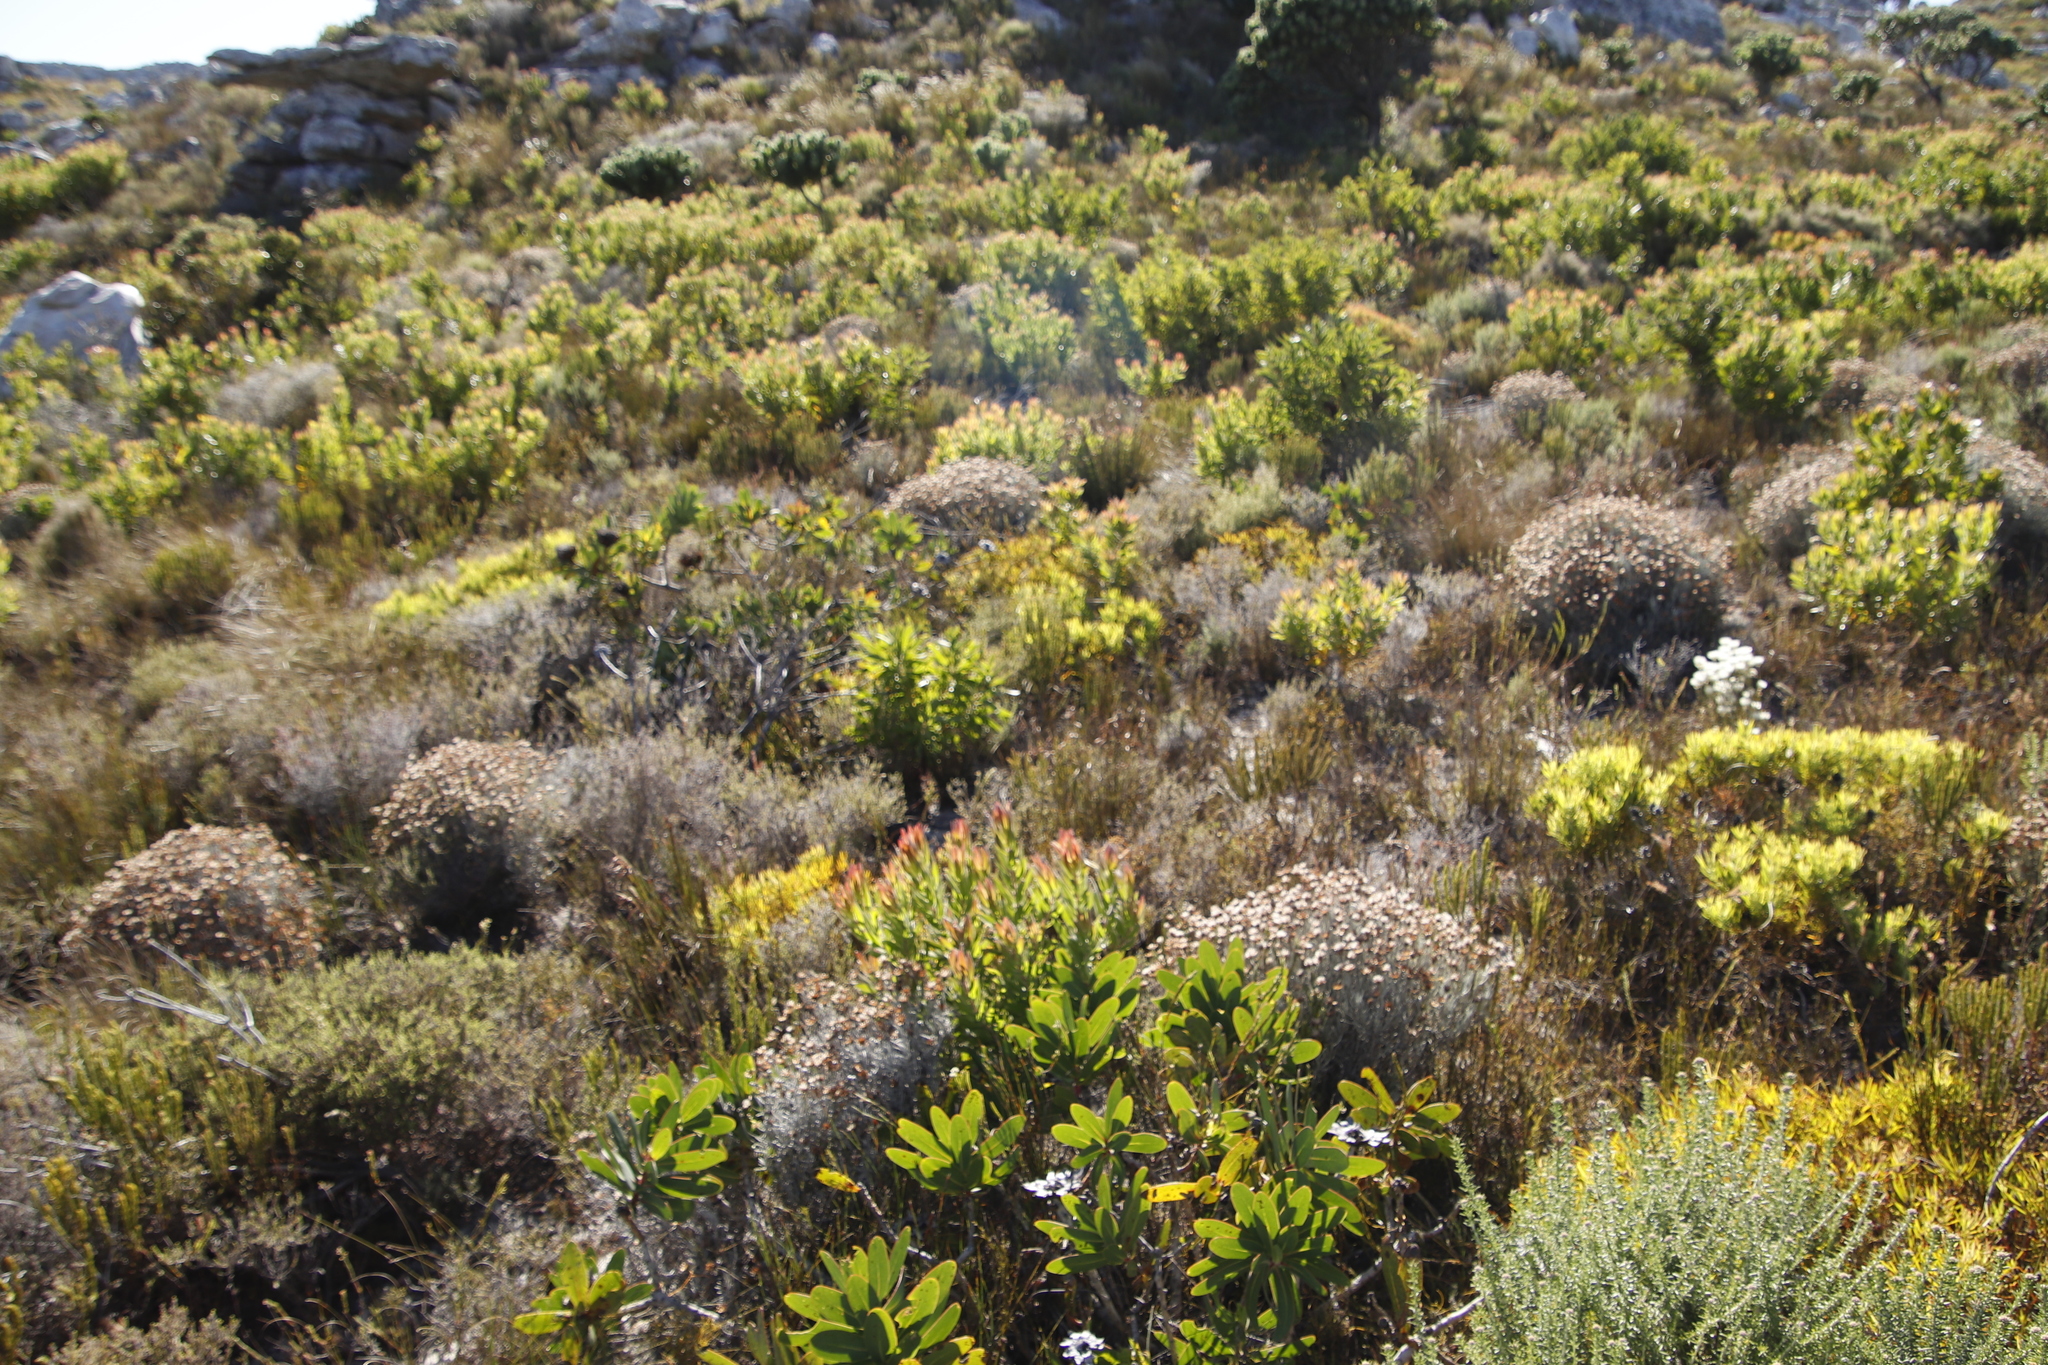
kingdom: Plantae
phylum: Tracheophyta
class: Magnoliopsida
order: Proteales
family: Proteaceae
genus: Leucadendron
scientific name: Leucadendron laureolum
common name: Golden sunshinebush
